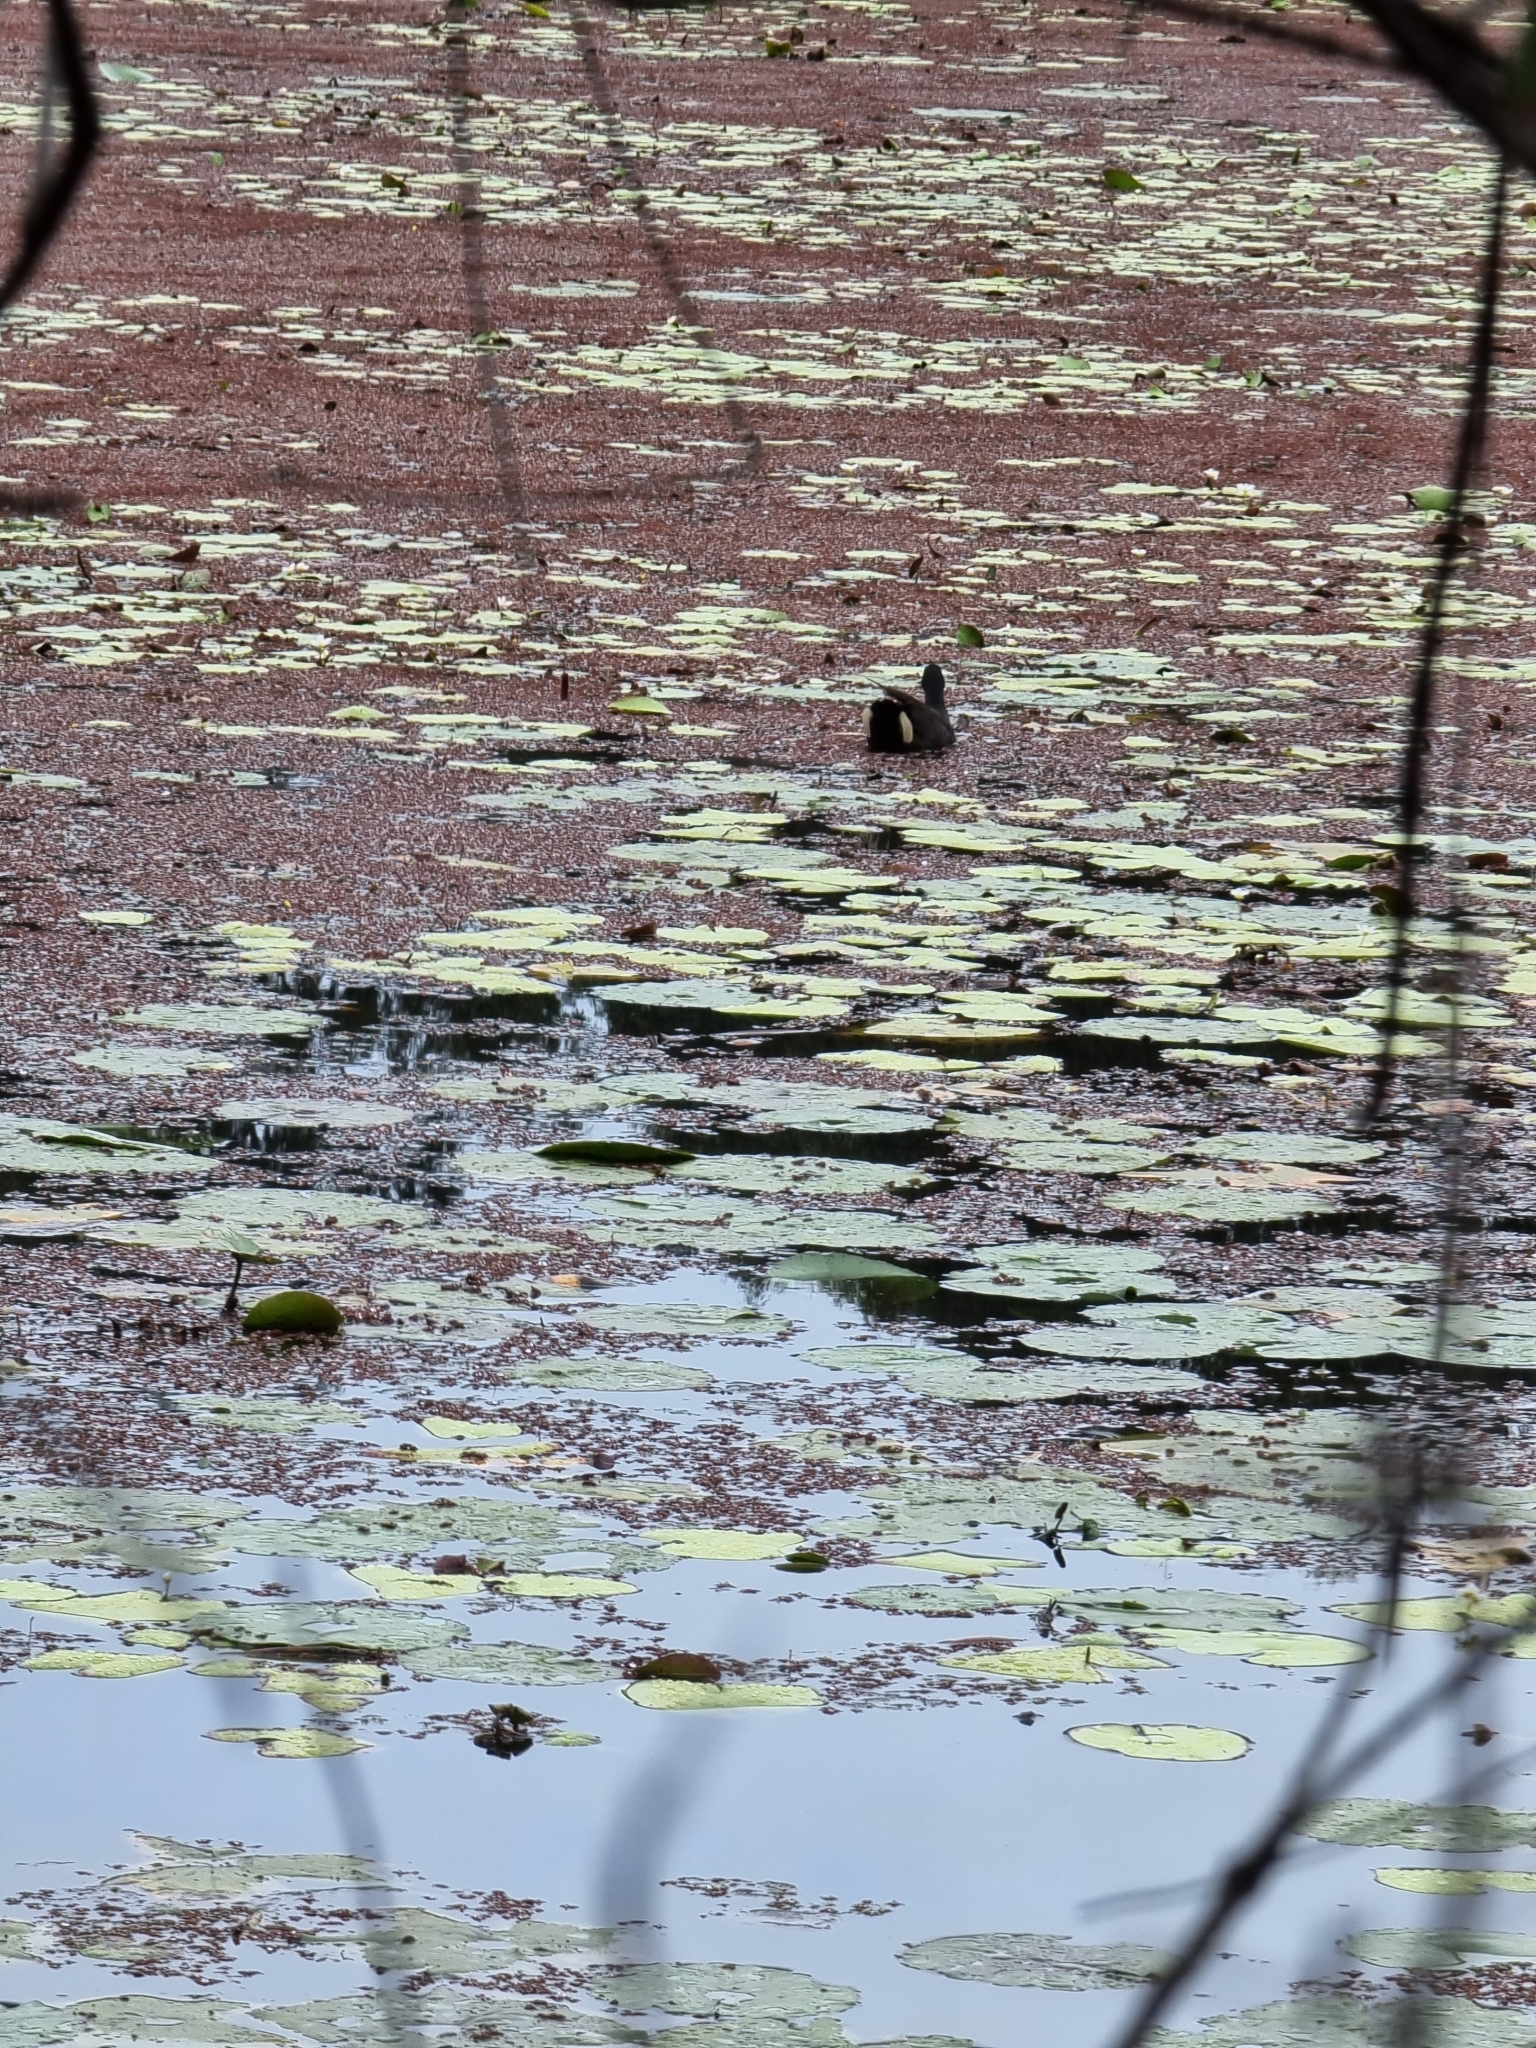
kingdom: Animalia
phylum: Chordata
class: Aves
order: Gruiformes
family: Rallidae
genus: Gallinula
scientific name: Gallinula tenebrosa
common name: Dusky moorhen
